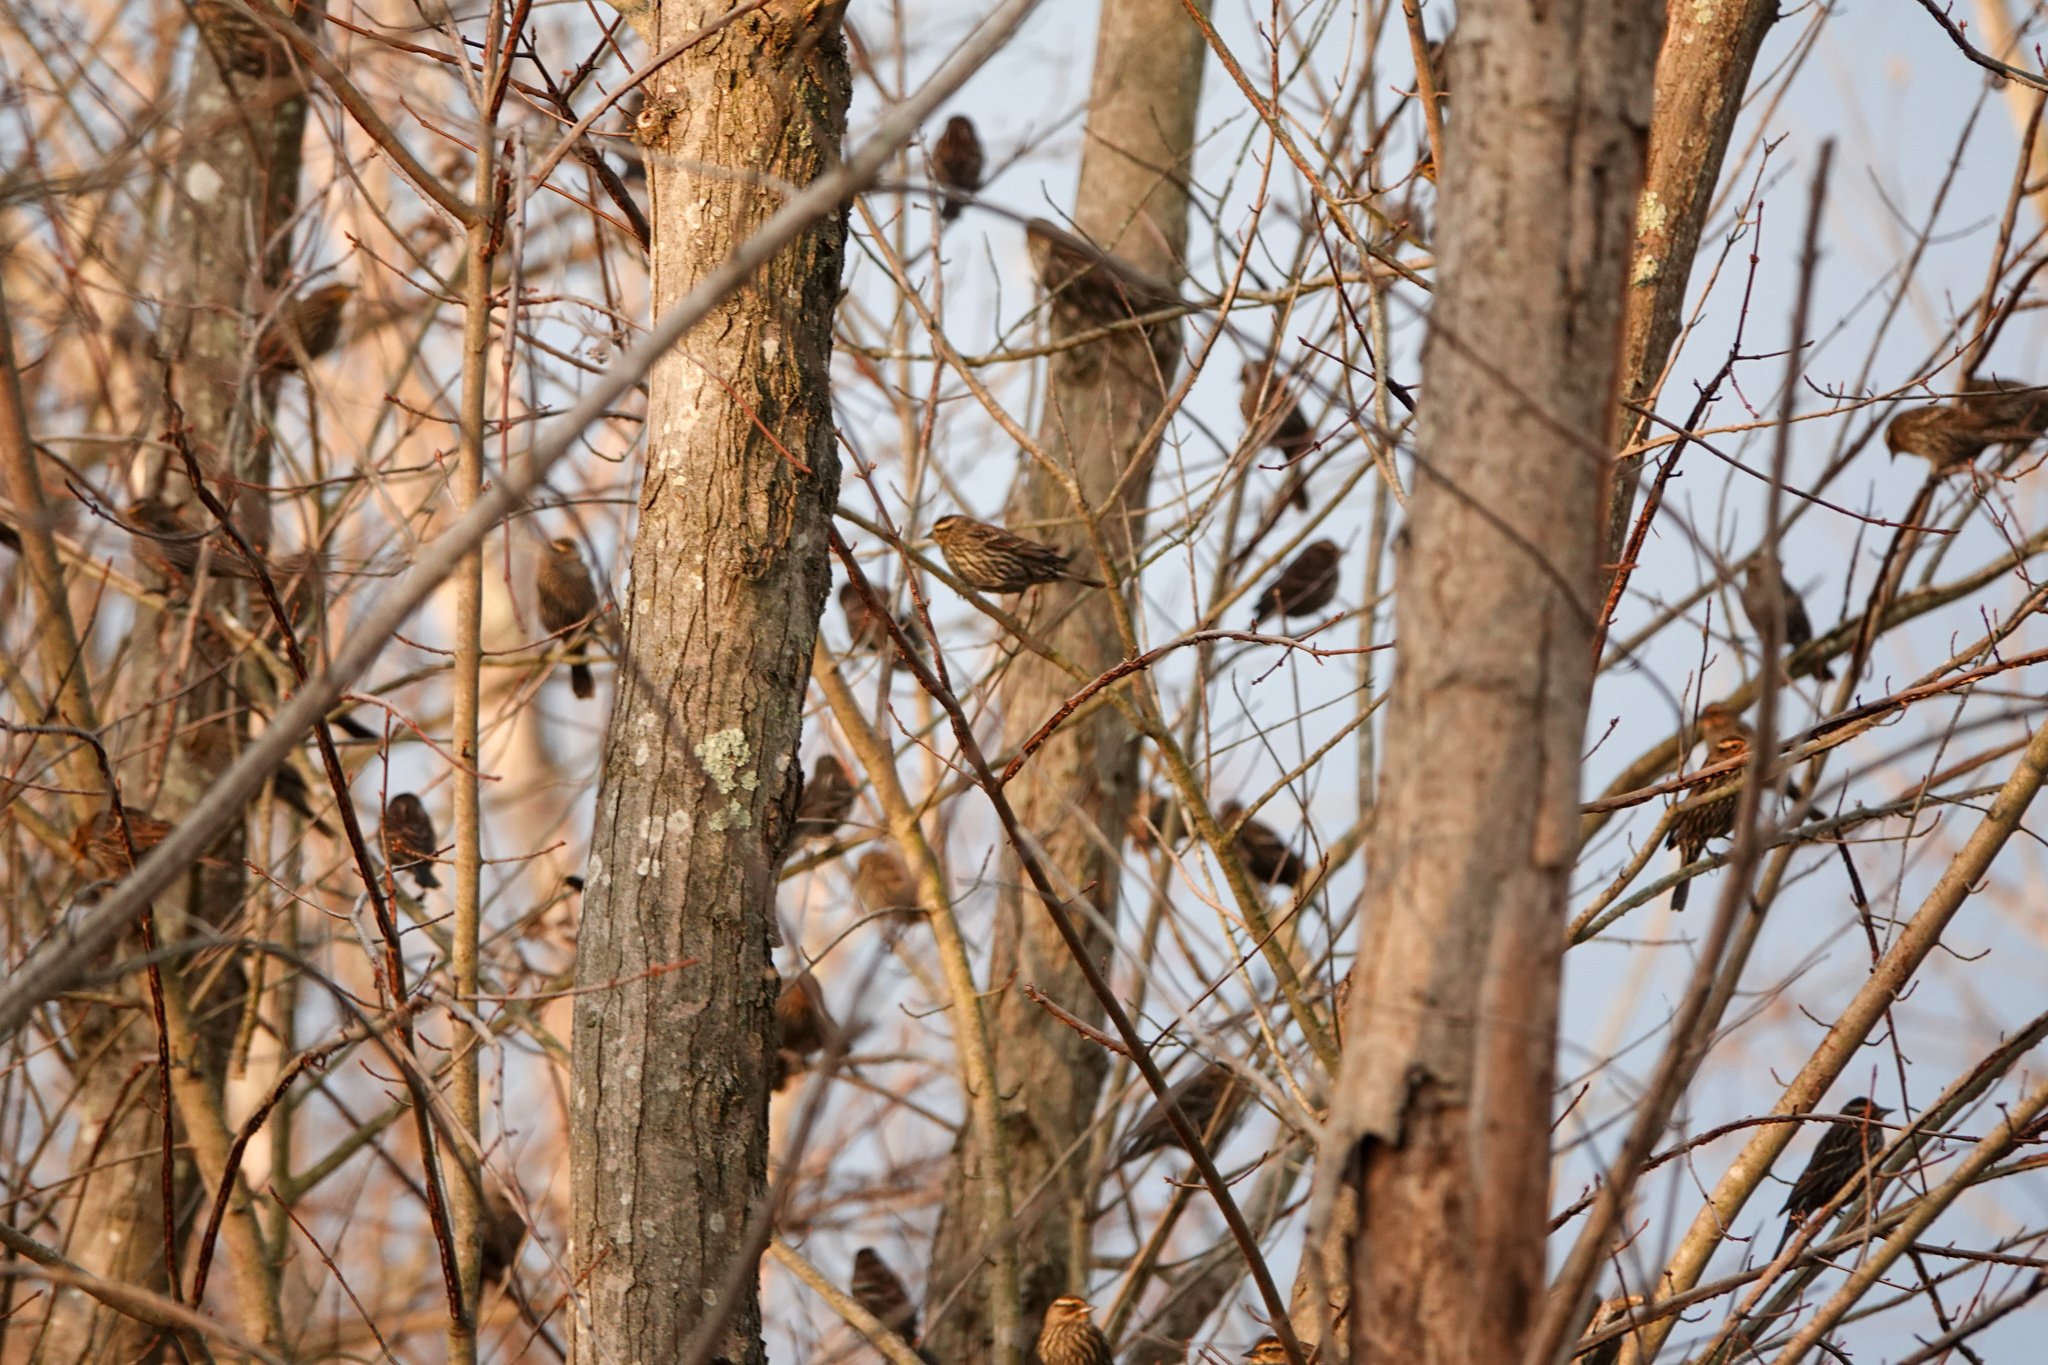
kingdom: Animalia
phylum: Chordata
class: Aves
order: Passeriformes
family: Icteridae
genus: Agelaius
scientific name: Agelaius phoeniceus
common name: Red-winged blackbird
